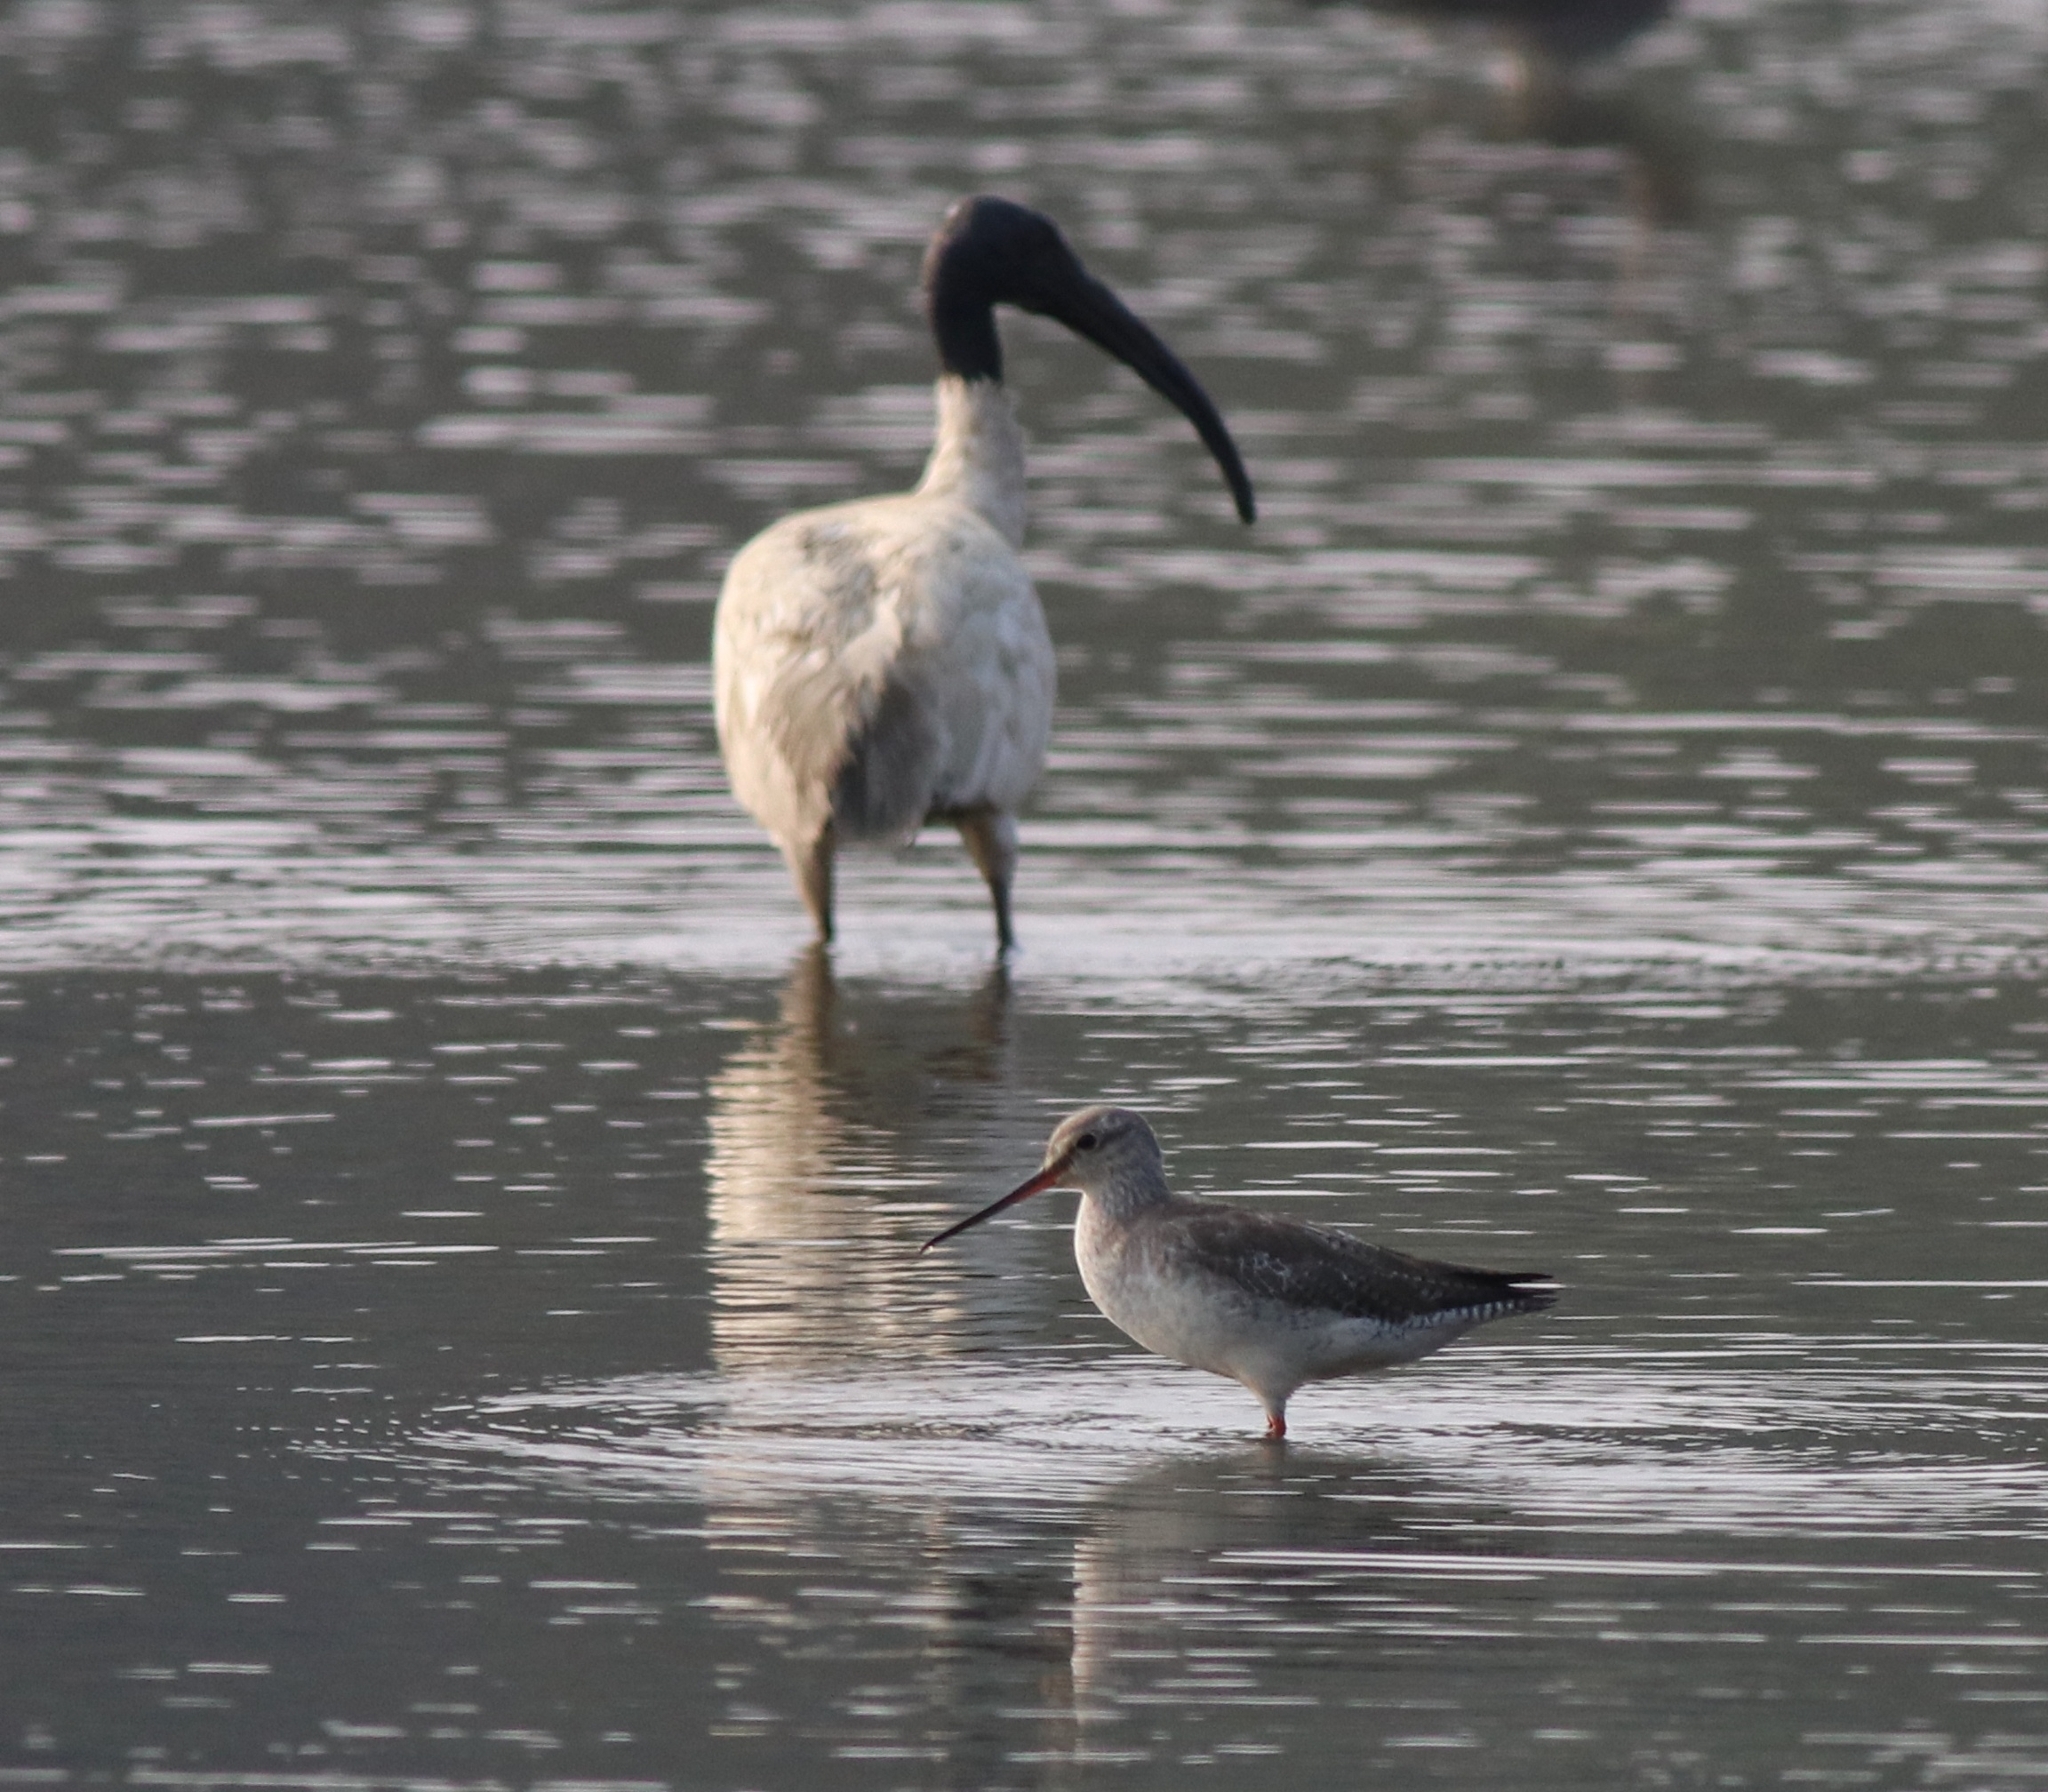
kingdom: Animalia
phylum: Chordata
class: Aves
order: Pelecaniformes
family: Threskiornithidae
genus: Threskiornis
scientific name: Threskiornis melanocephalus
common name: Black-headed ibis
